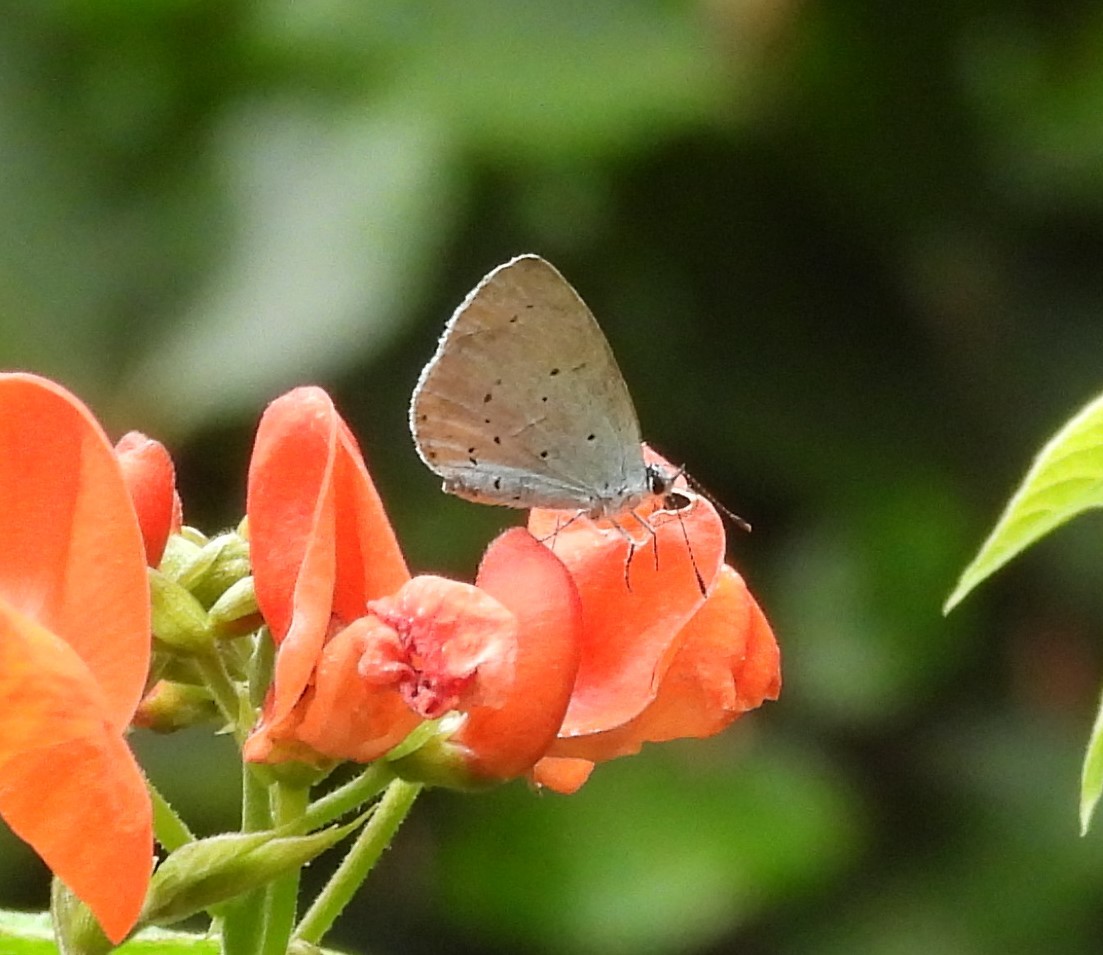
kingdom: Animalia
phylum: Arthropoda
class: Insecta
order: Lepidoptera
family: Lycaenidae
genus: Celastrina
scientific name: Celastrina argiolus
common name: Holly blue
